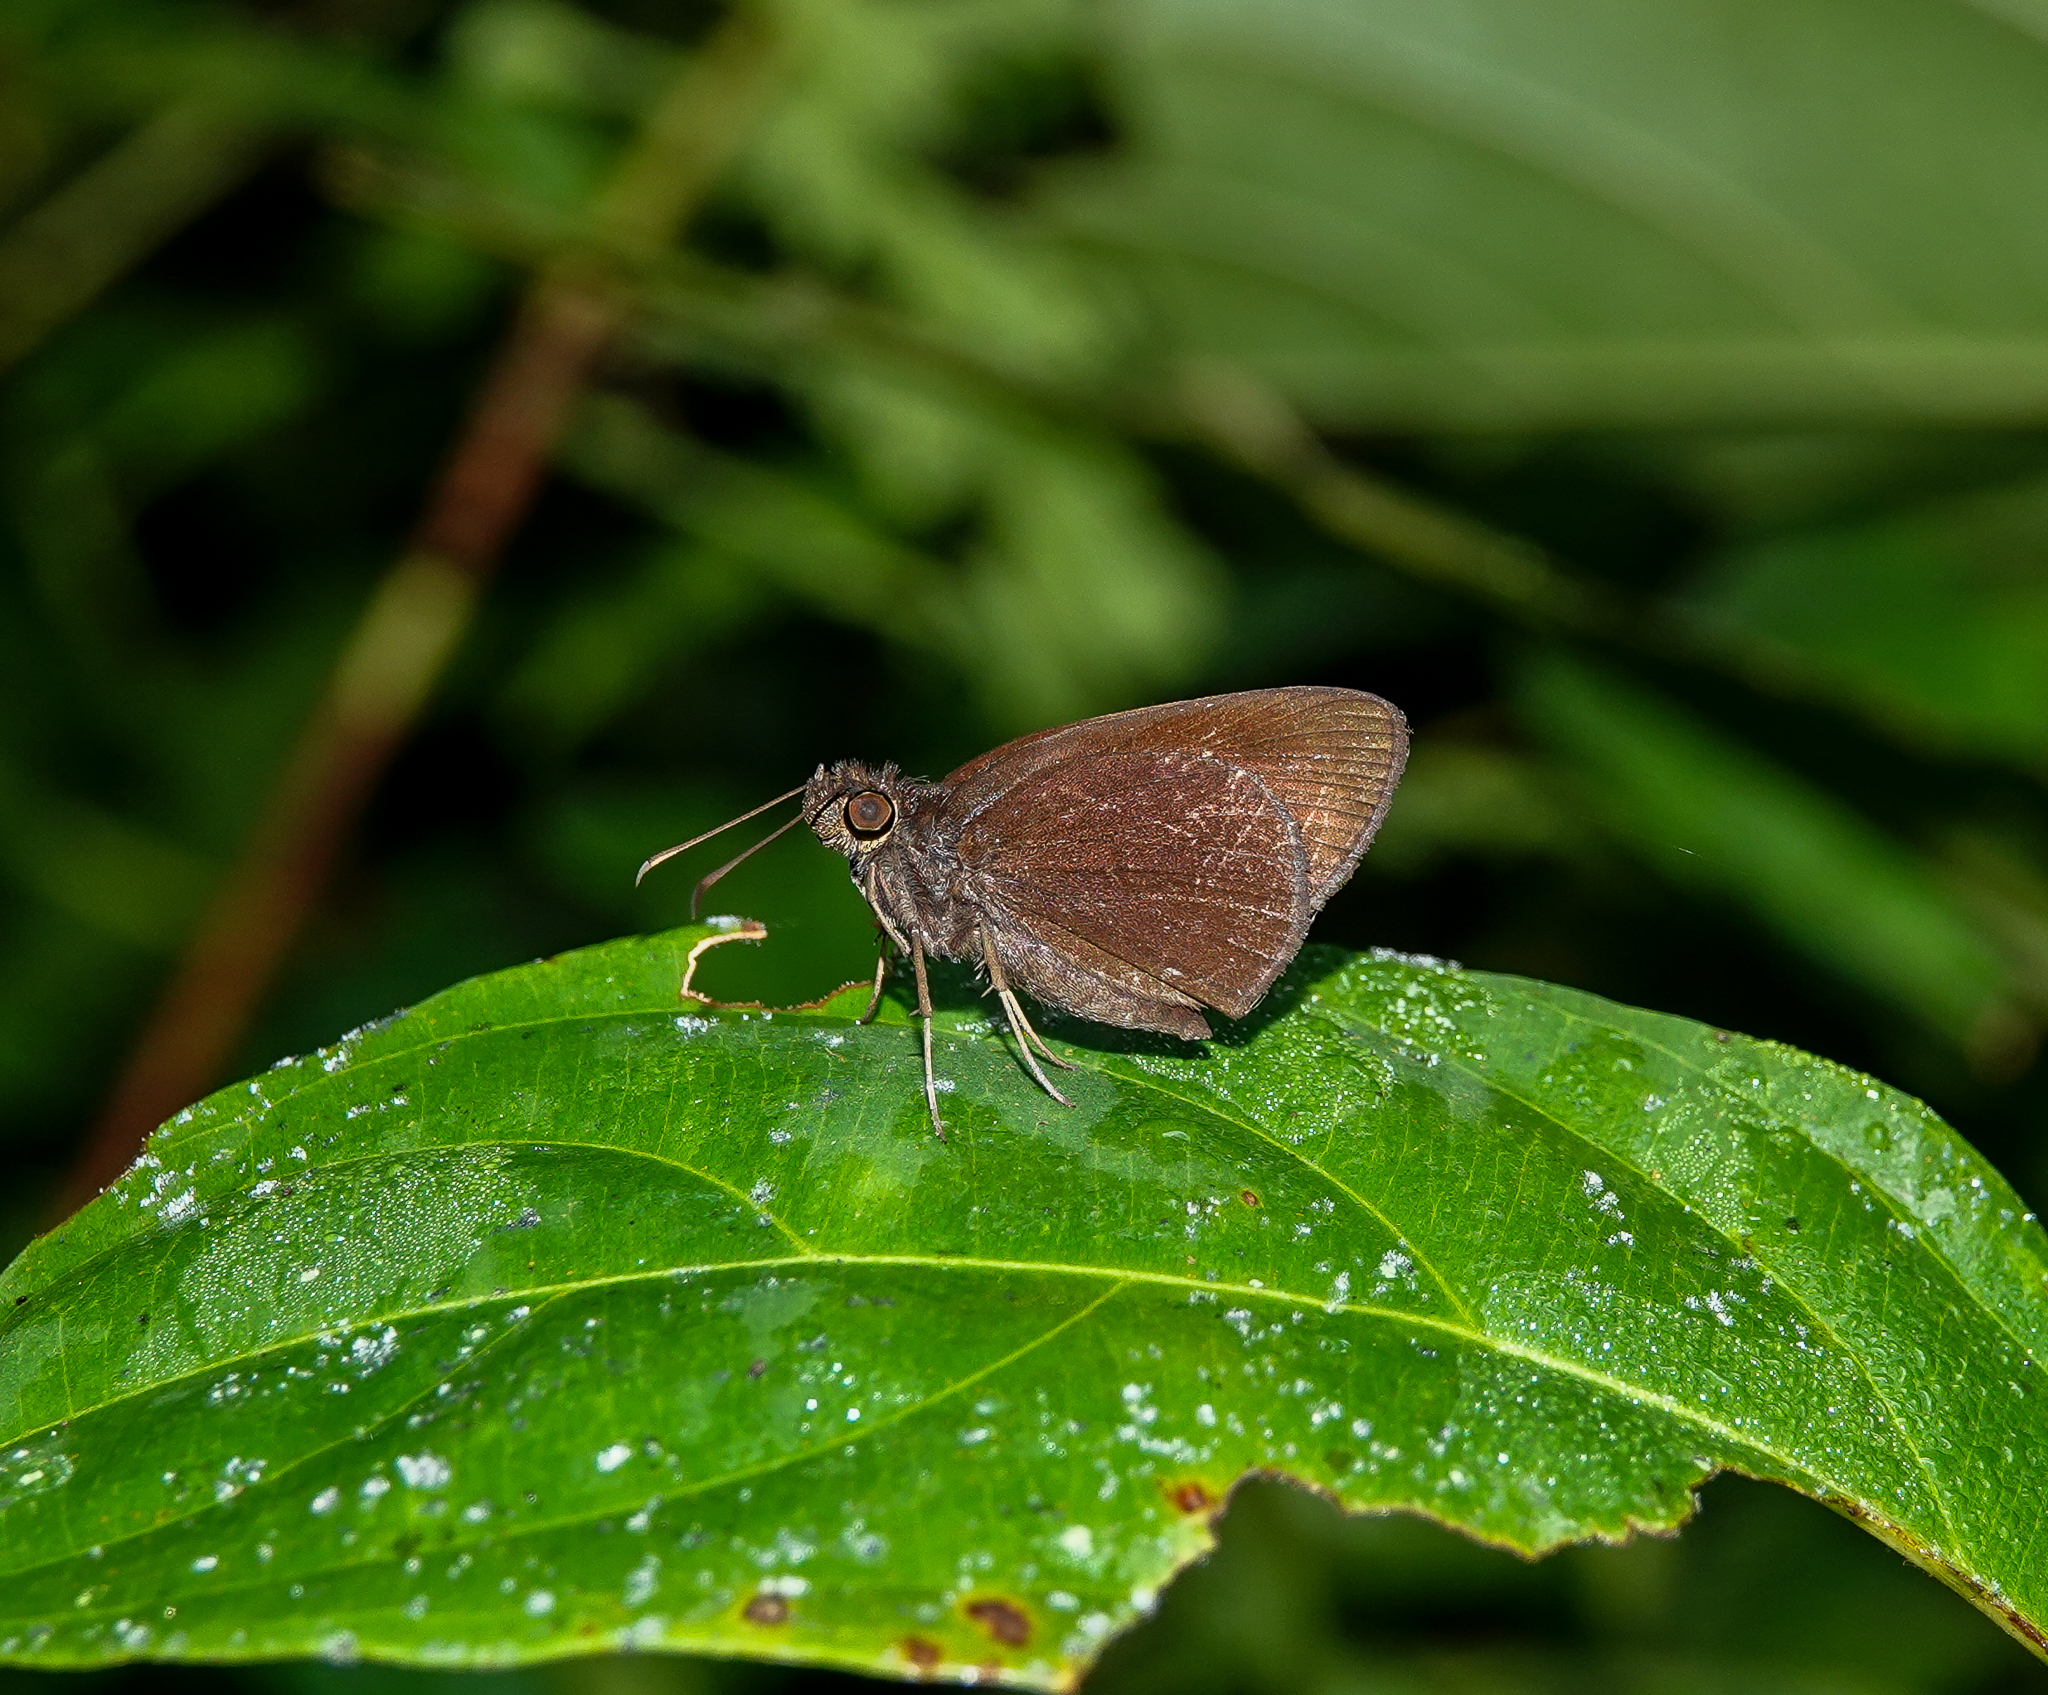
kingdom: Animalia
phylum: Arthropoda
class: Insecta
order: Lepidoptera
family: Hesperiidae
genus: Koruthaialos
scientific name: Koruthaialos butleri
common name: Dark velvet bob
